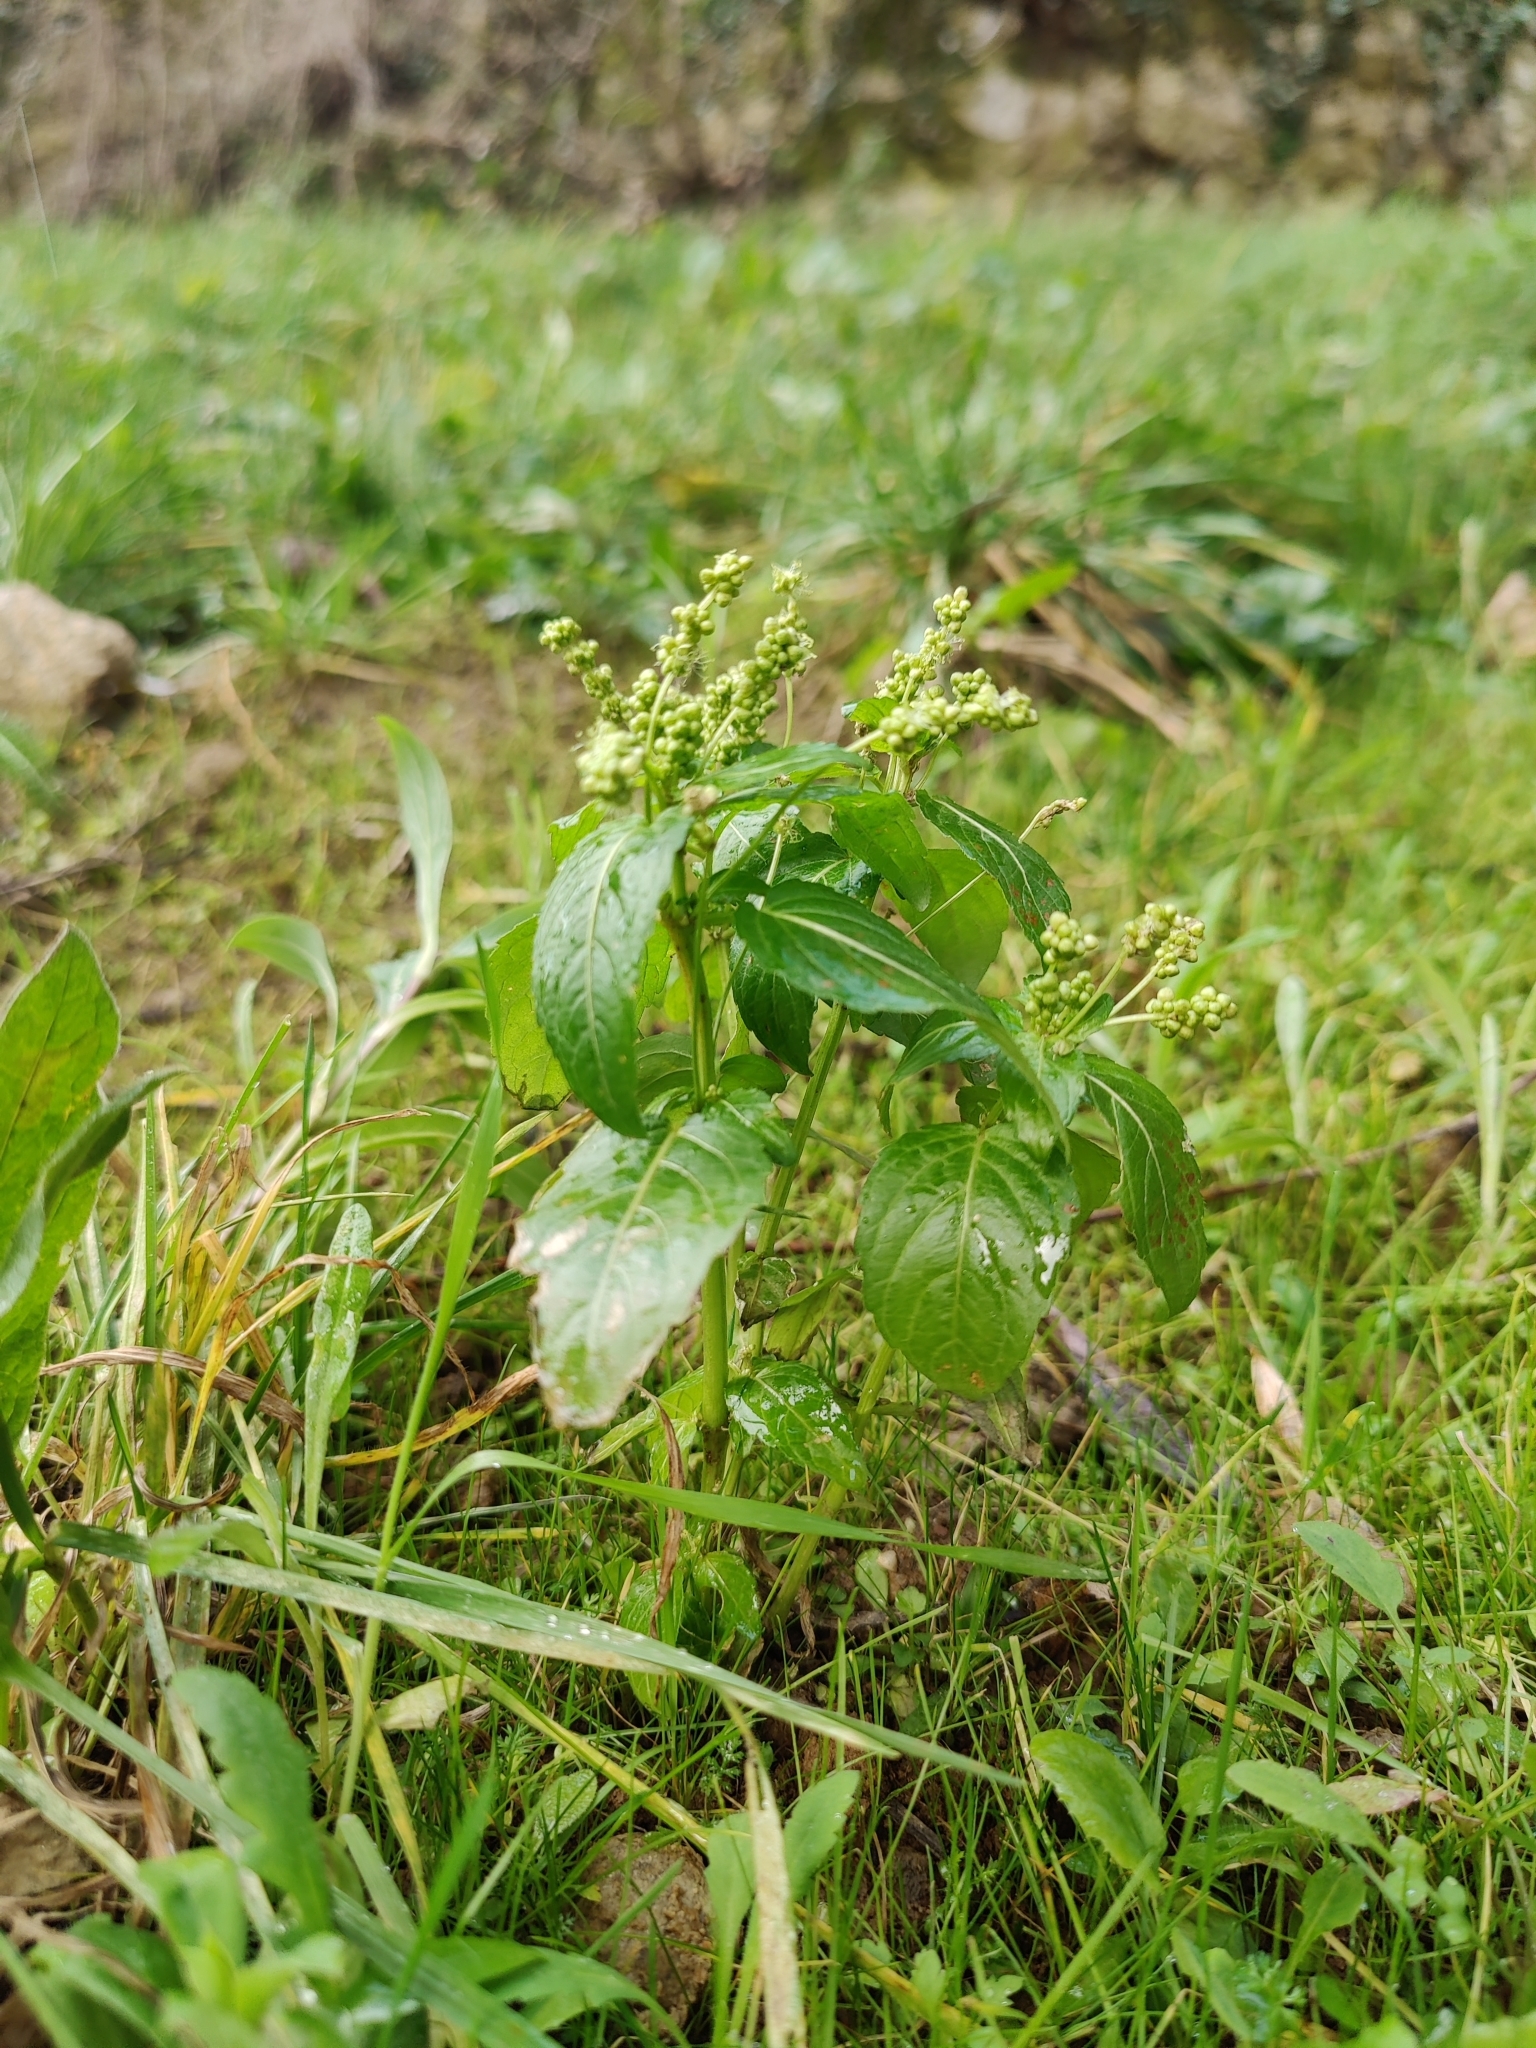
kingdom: Plantae
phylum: Tracheophyta
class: Magnoliopsida
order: Malpighiales
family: Euphorbiaceae
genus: Mercurialis
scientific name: Mercurialis annua
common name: Annual mercury
